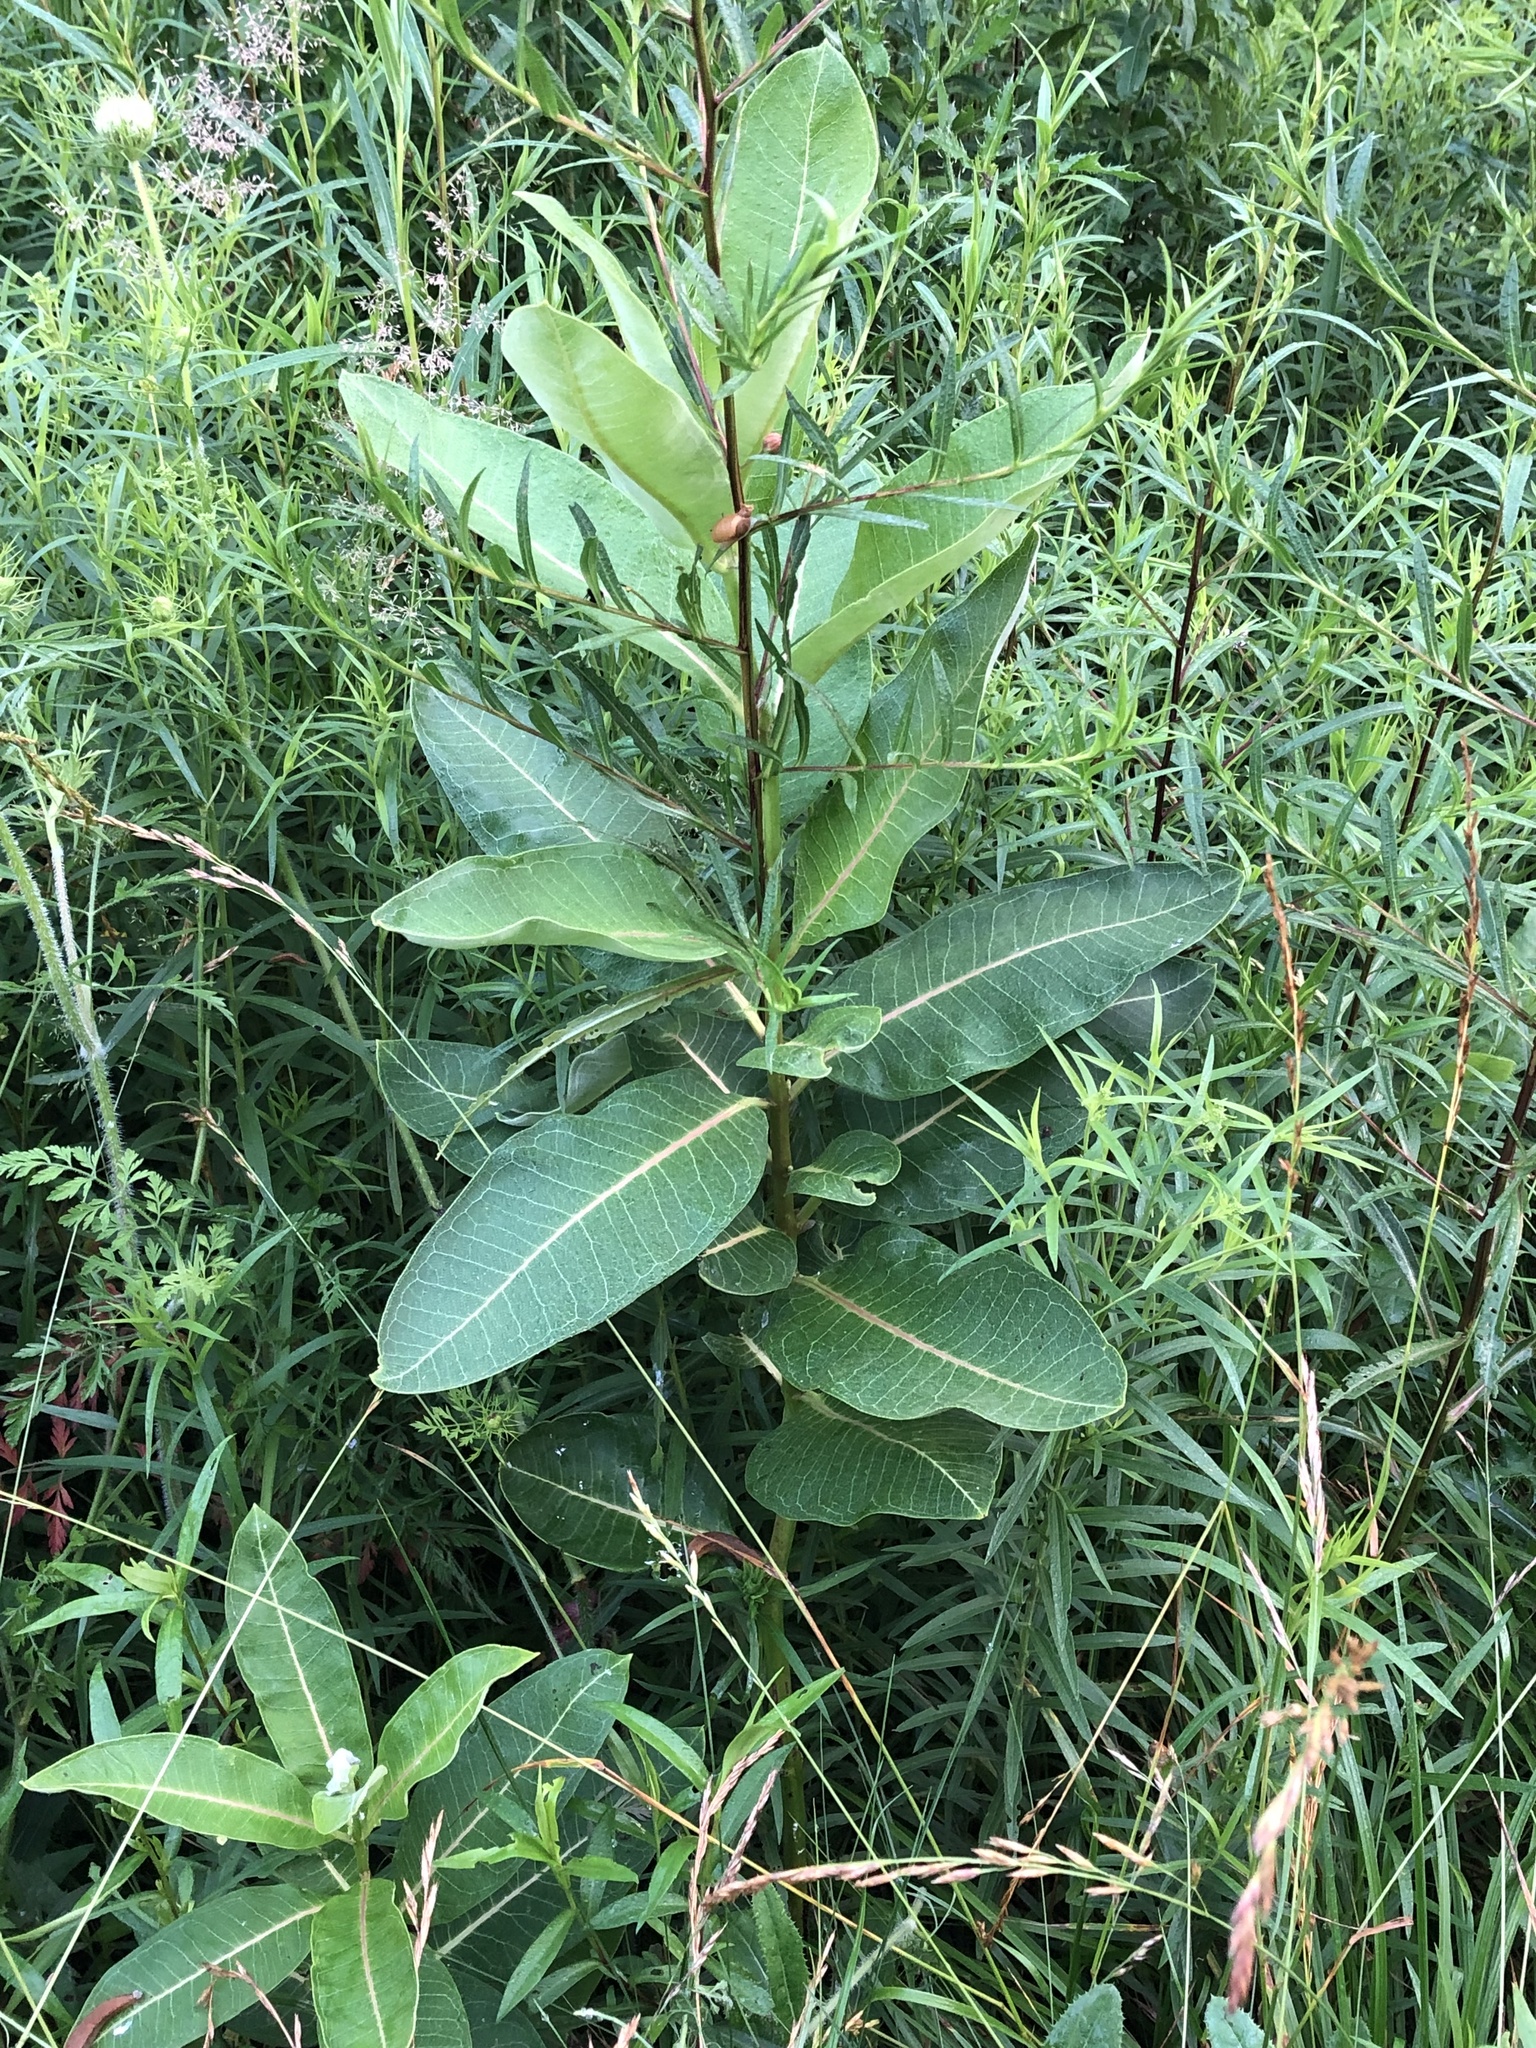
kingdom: Plantae
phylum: Tracheophyta
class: Magnoliopsida
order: Gentianales
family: Apocynaceae
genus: Asclepias
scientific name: Asclepias syriaca
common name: Common milkweed
